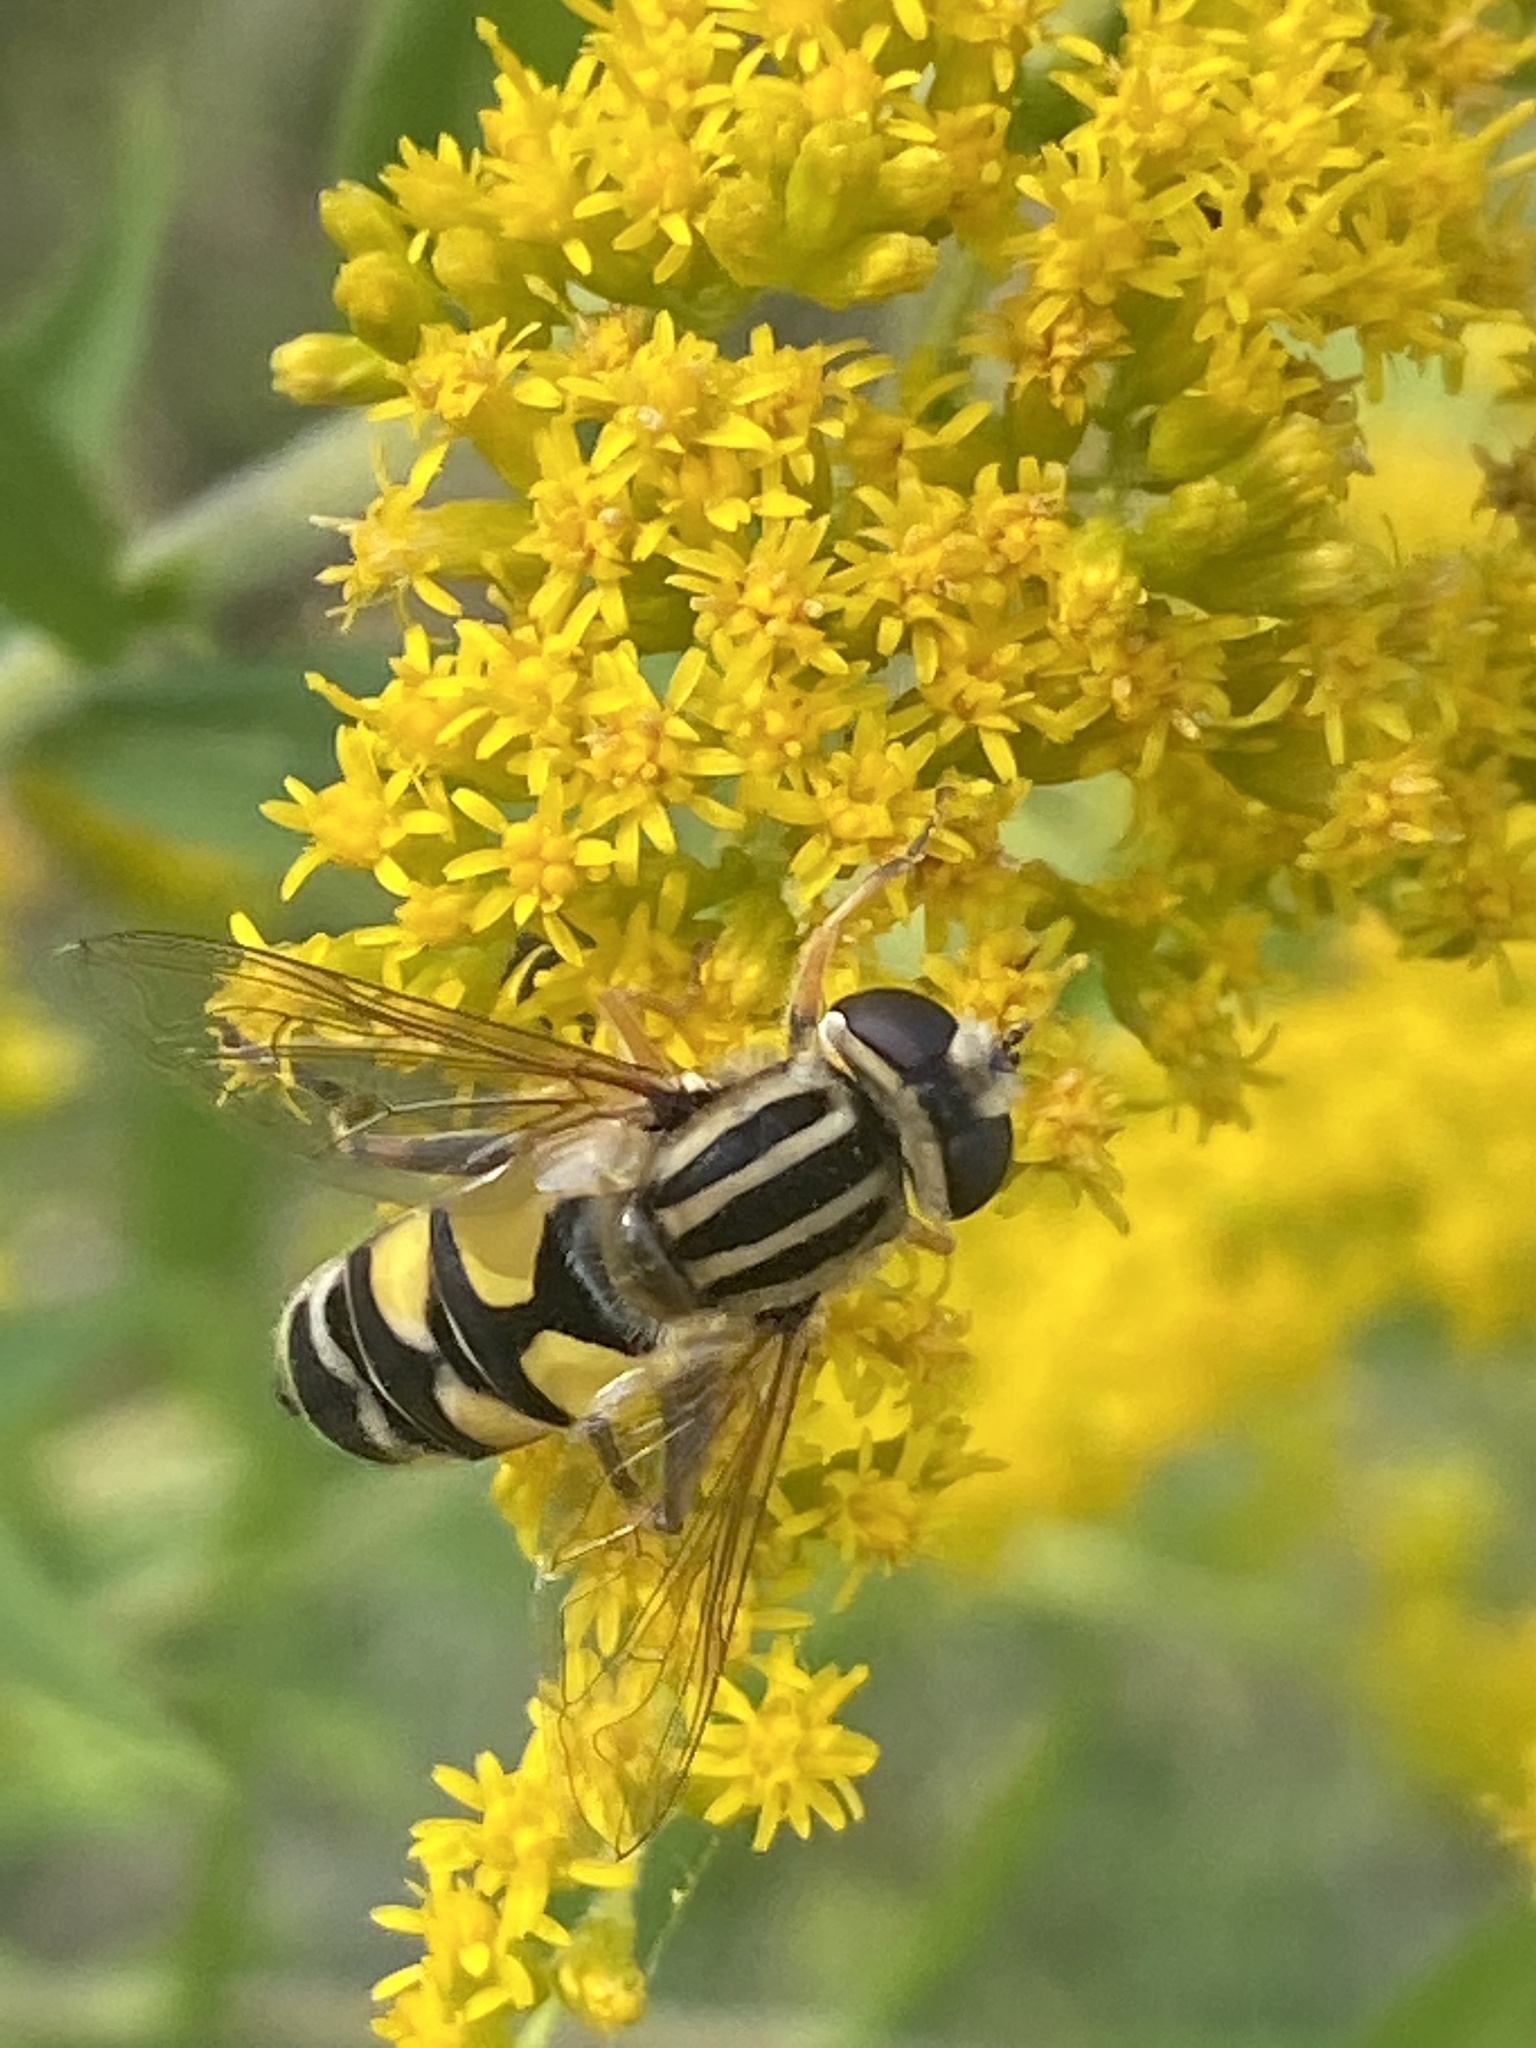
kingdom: Animalia
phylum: Arthropoda
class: Insecta
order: Diptera
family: Syrphidae
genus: Helophilus
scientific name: Helophilus trivittatus
